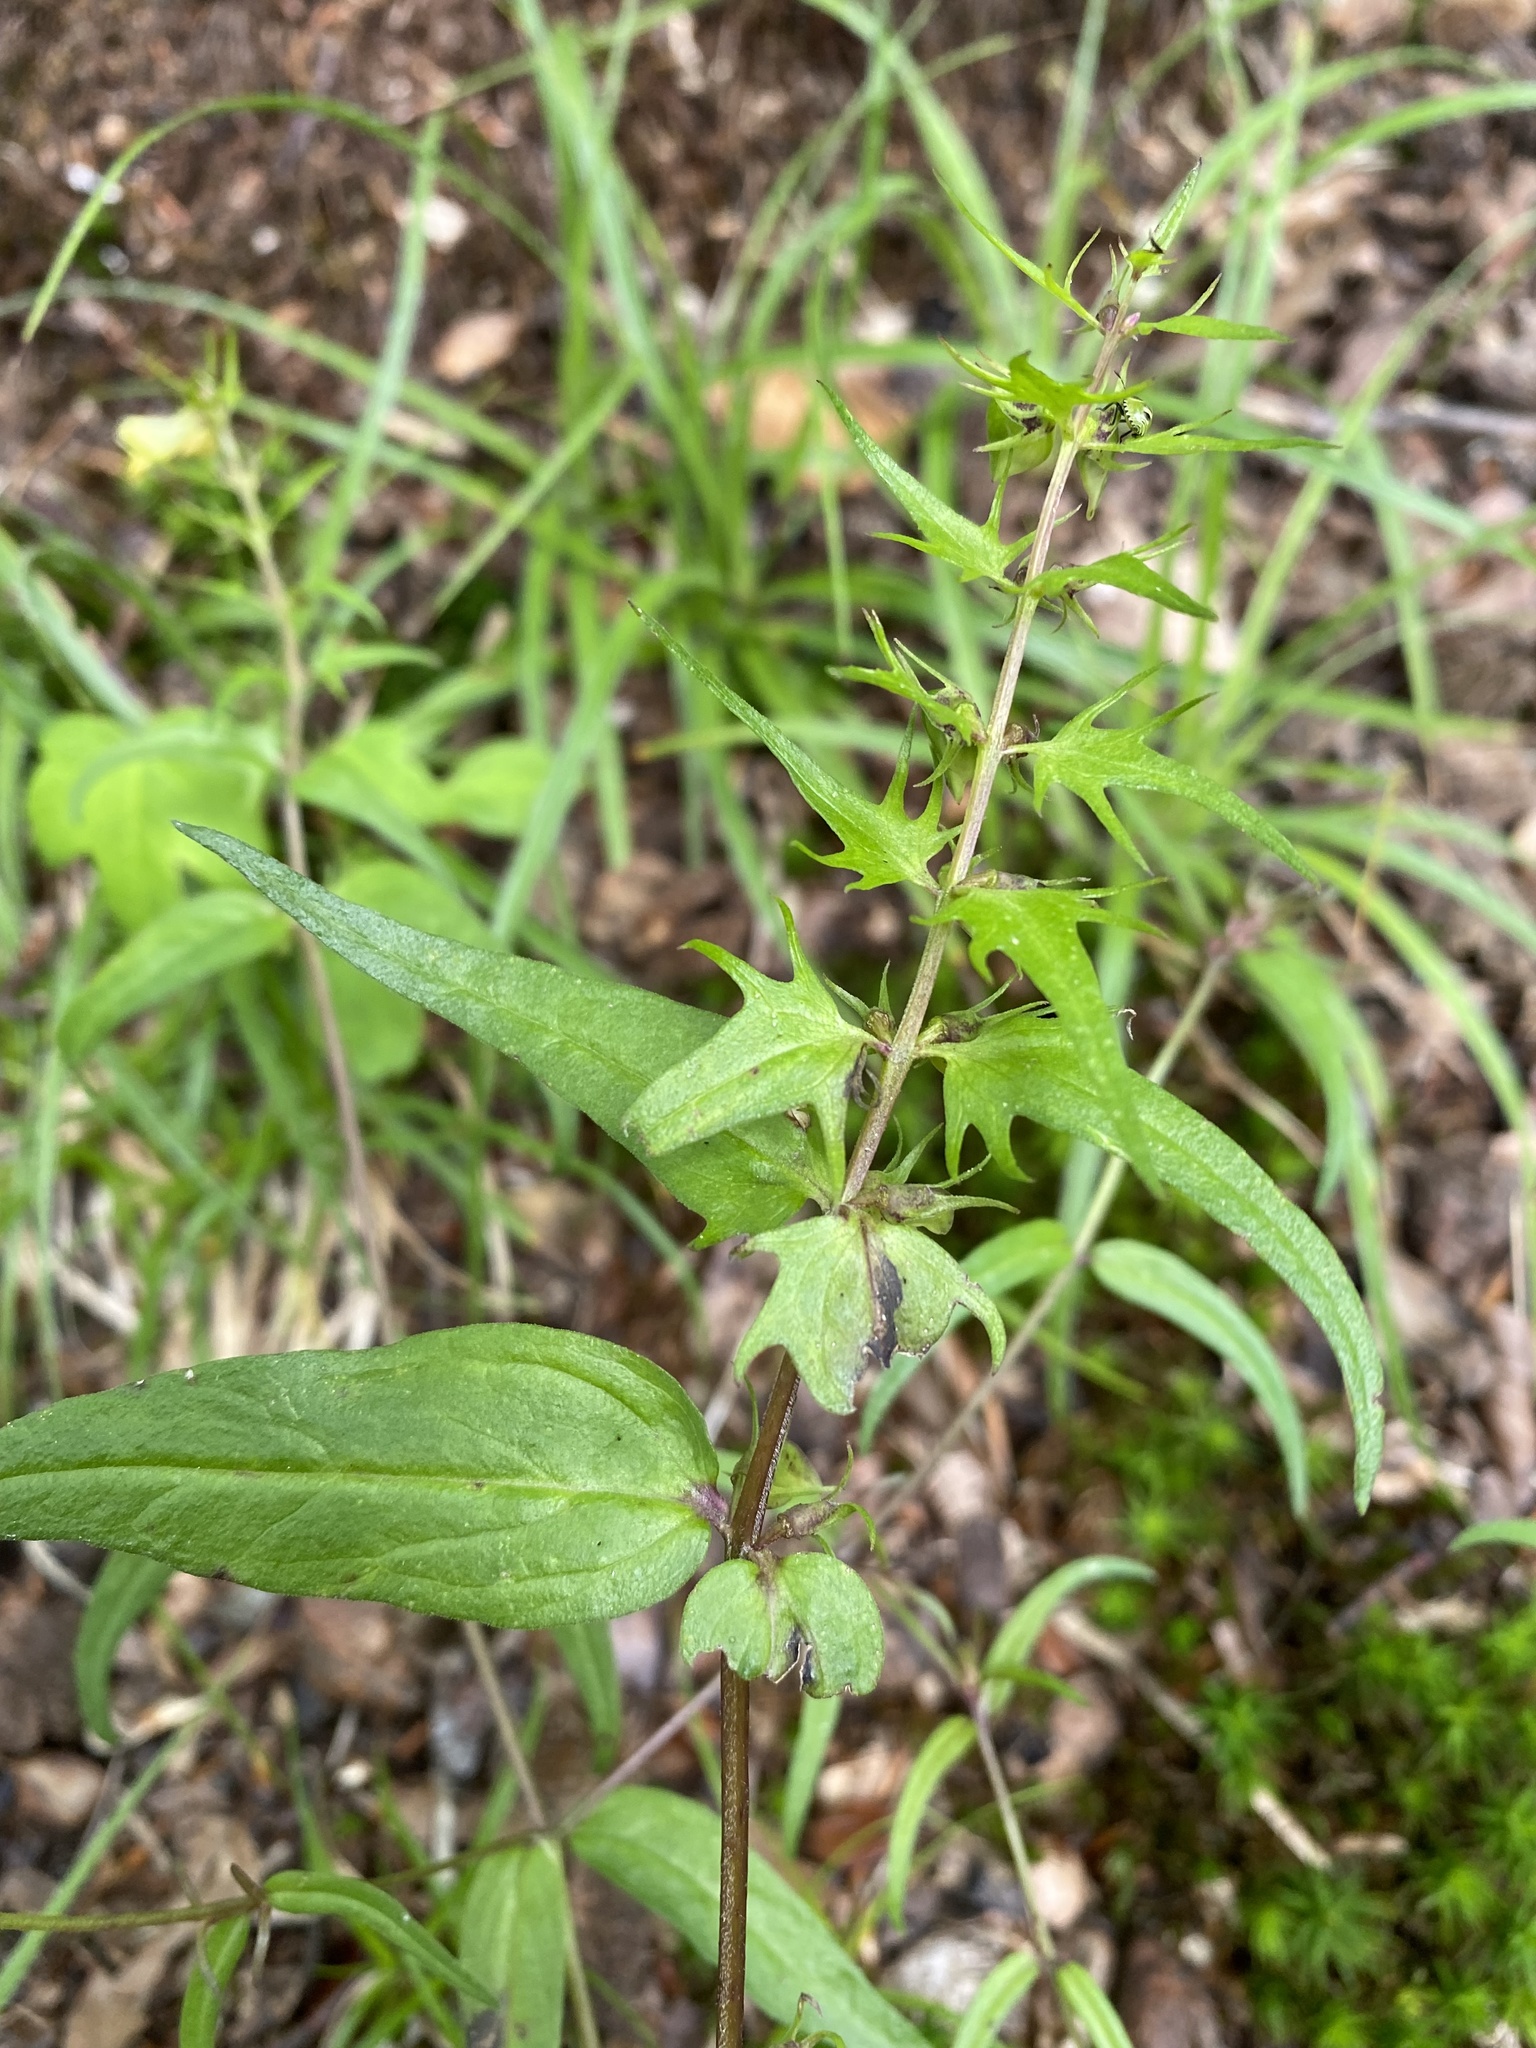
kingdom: Plantae
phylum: Tracheophyta
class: Magnoliopsida
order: Lamiales
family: Orobanchaceae
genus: Melampyrum
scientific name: Melampyrum pratense
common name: Common cow-wheat
